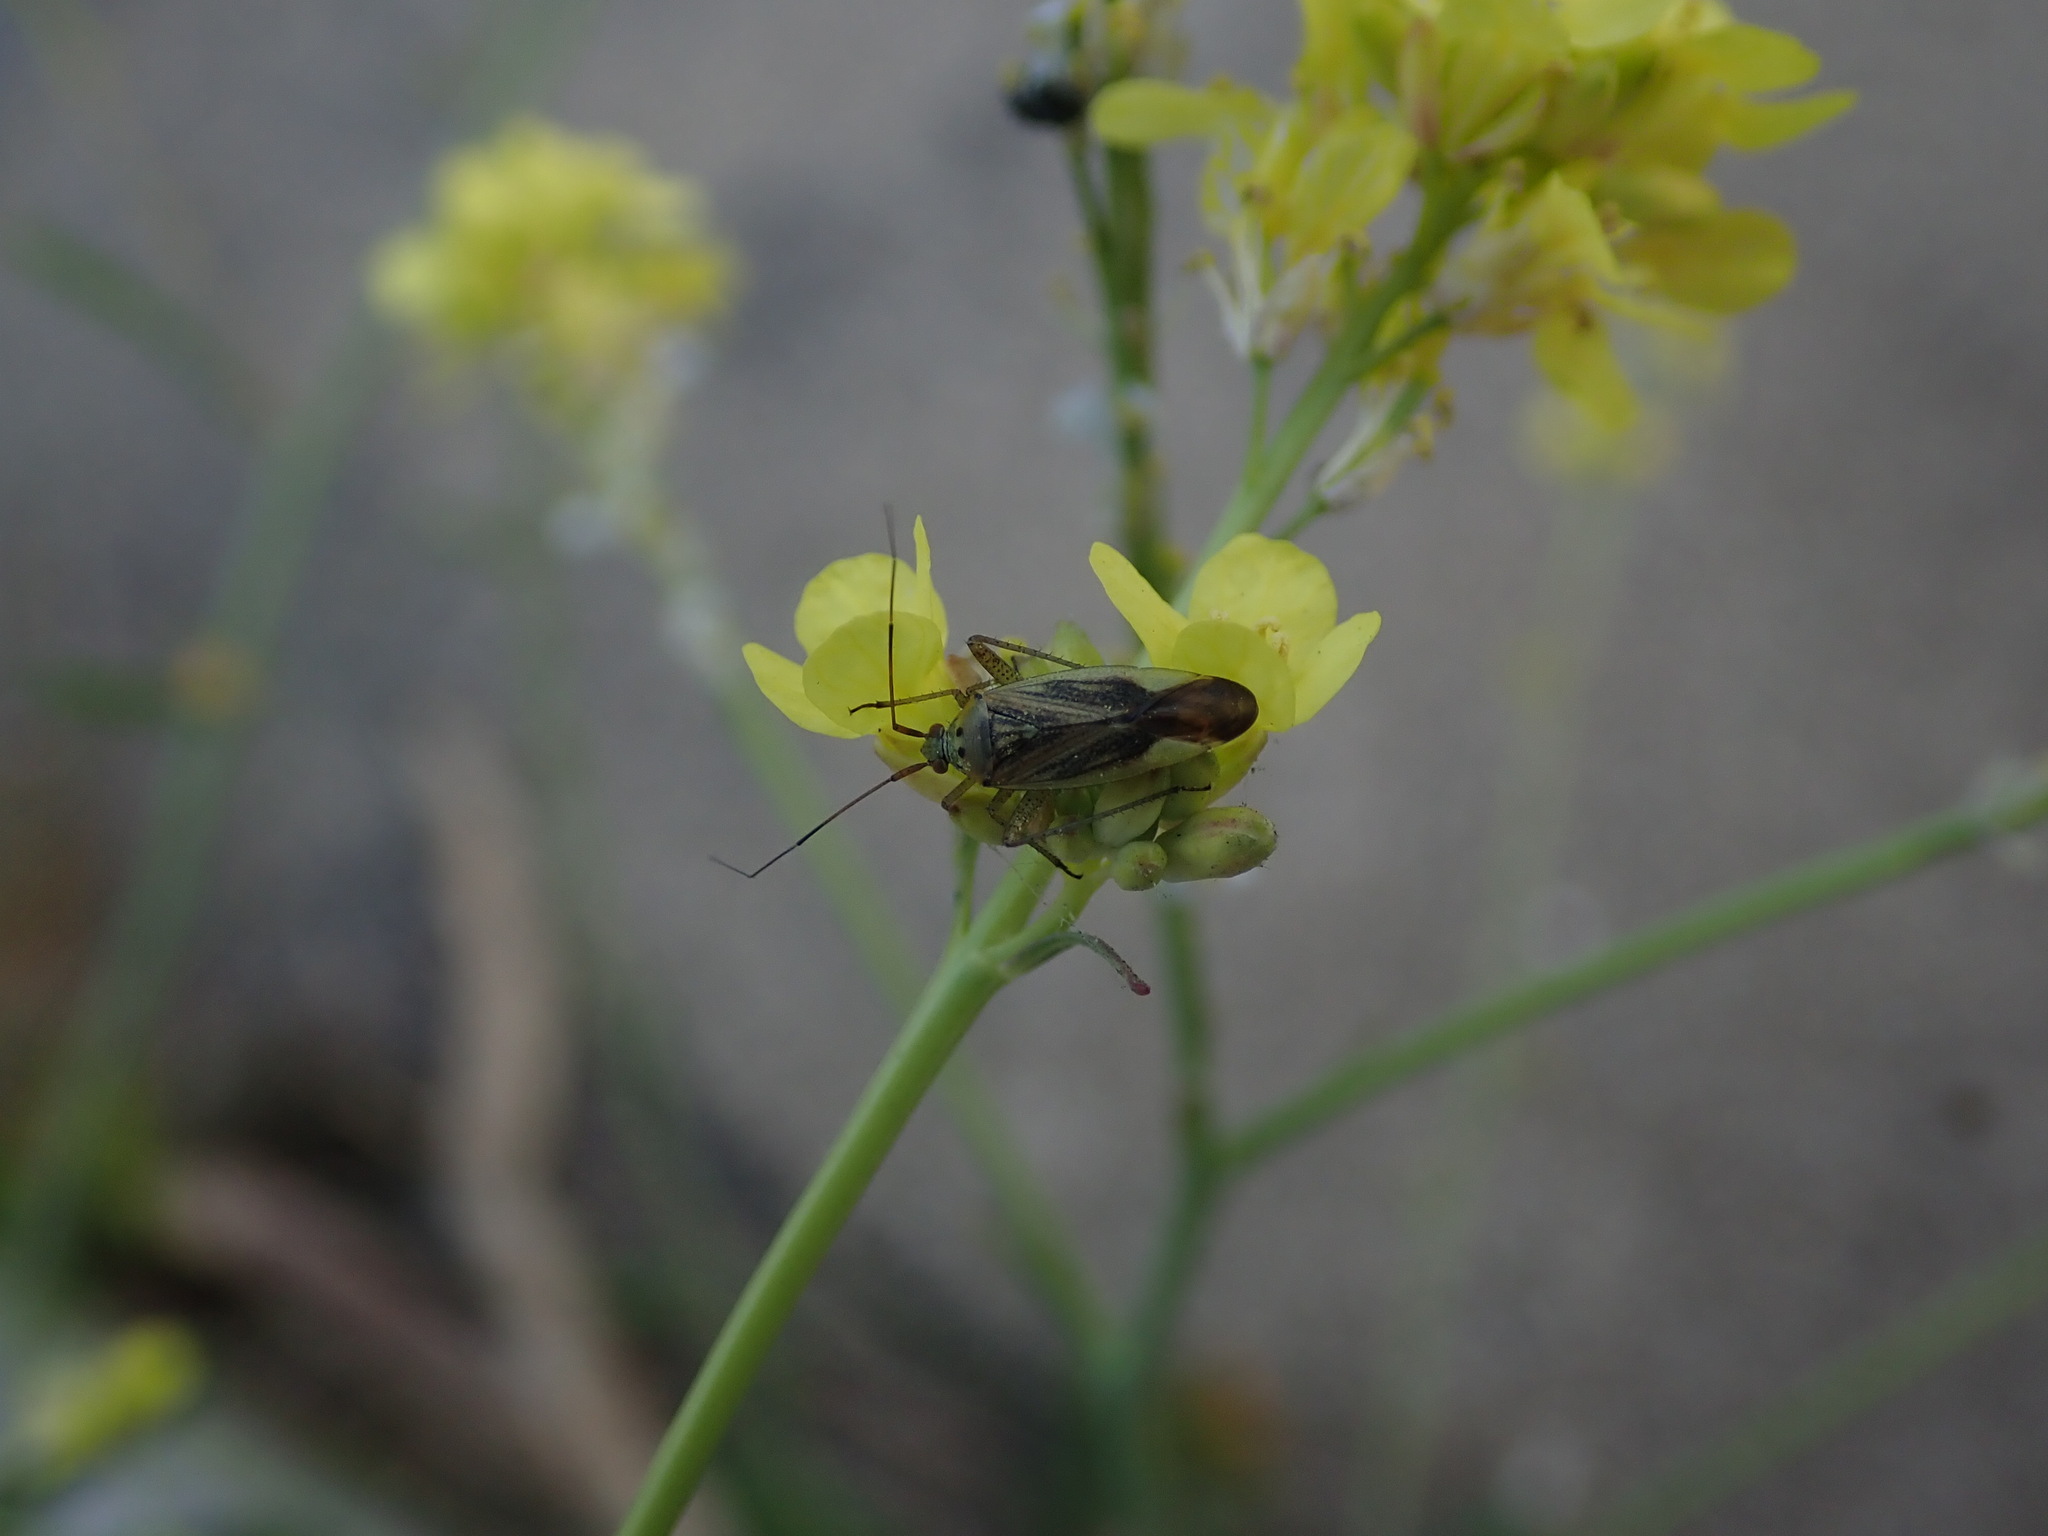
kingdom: Animalia
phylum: Arthropoda
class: Insecta
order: Hemiptera
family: Miridae
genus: Closterotomus
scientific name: Closterotomus trivialis
